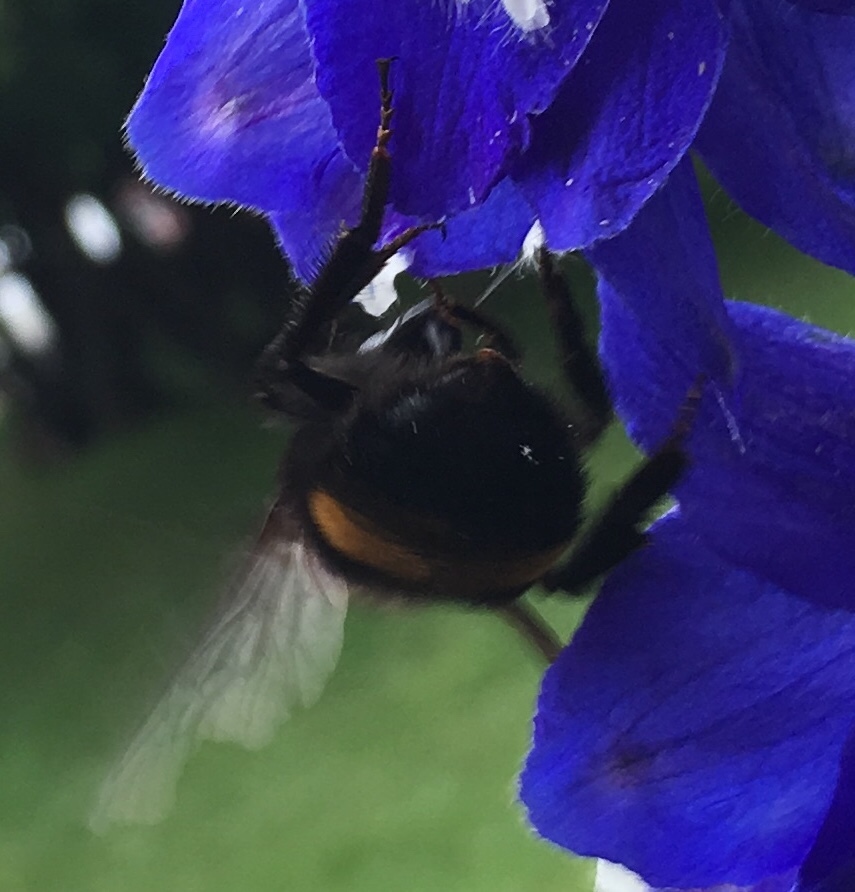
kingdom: Animalia
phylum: Arthropoda
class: Insecta
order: Hymenoptera
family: Apidae
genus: Bombus
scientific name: Bombus terricola
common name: Yellow-banded bumble bee
